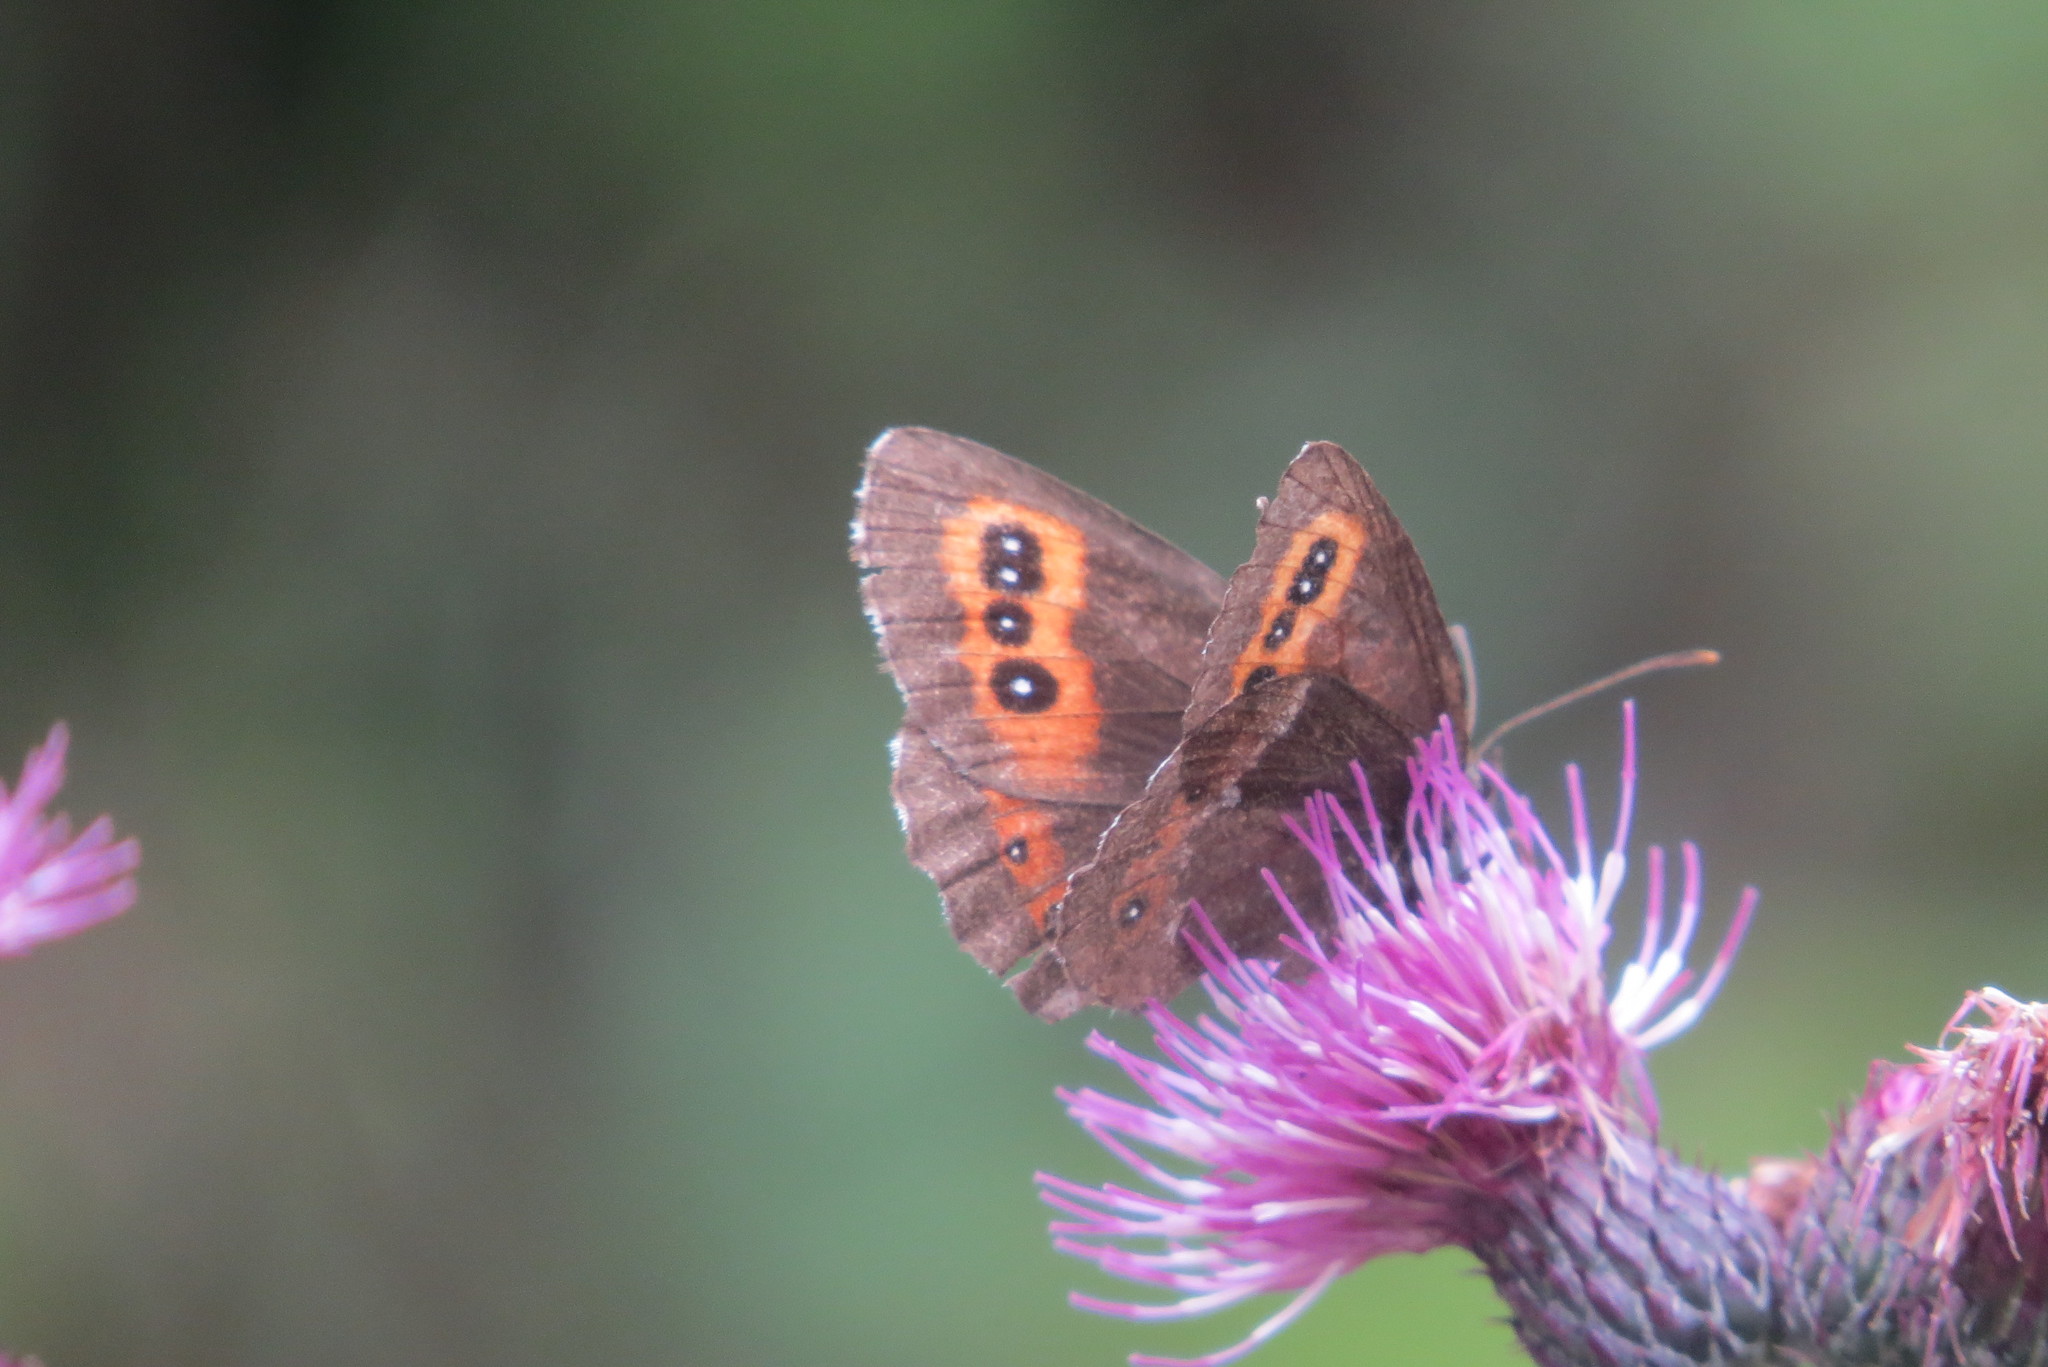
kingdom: Animalia
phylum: Arthropoda
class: Insecta
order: Lepidoptera
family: Nymphalidae
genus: Erebia
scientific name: Erebia ligea
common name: Arran brown
